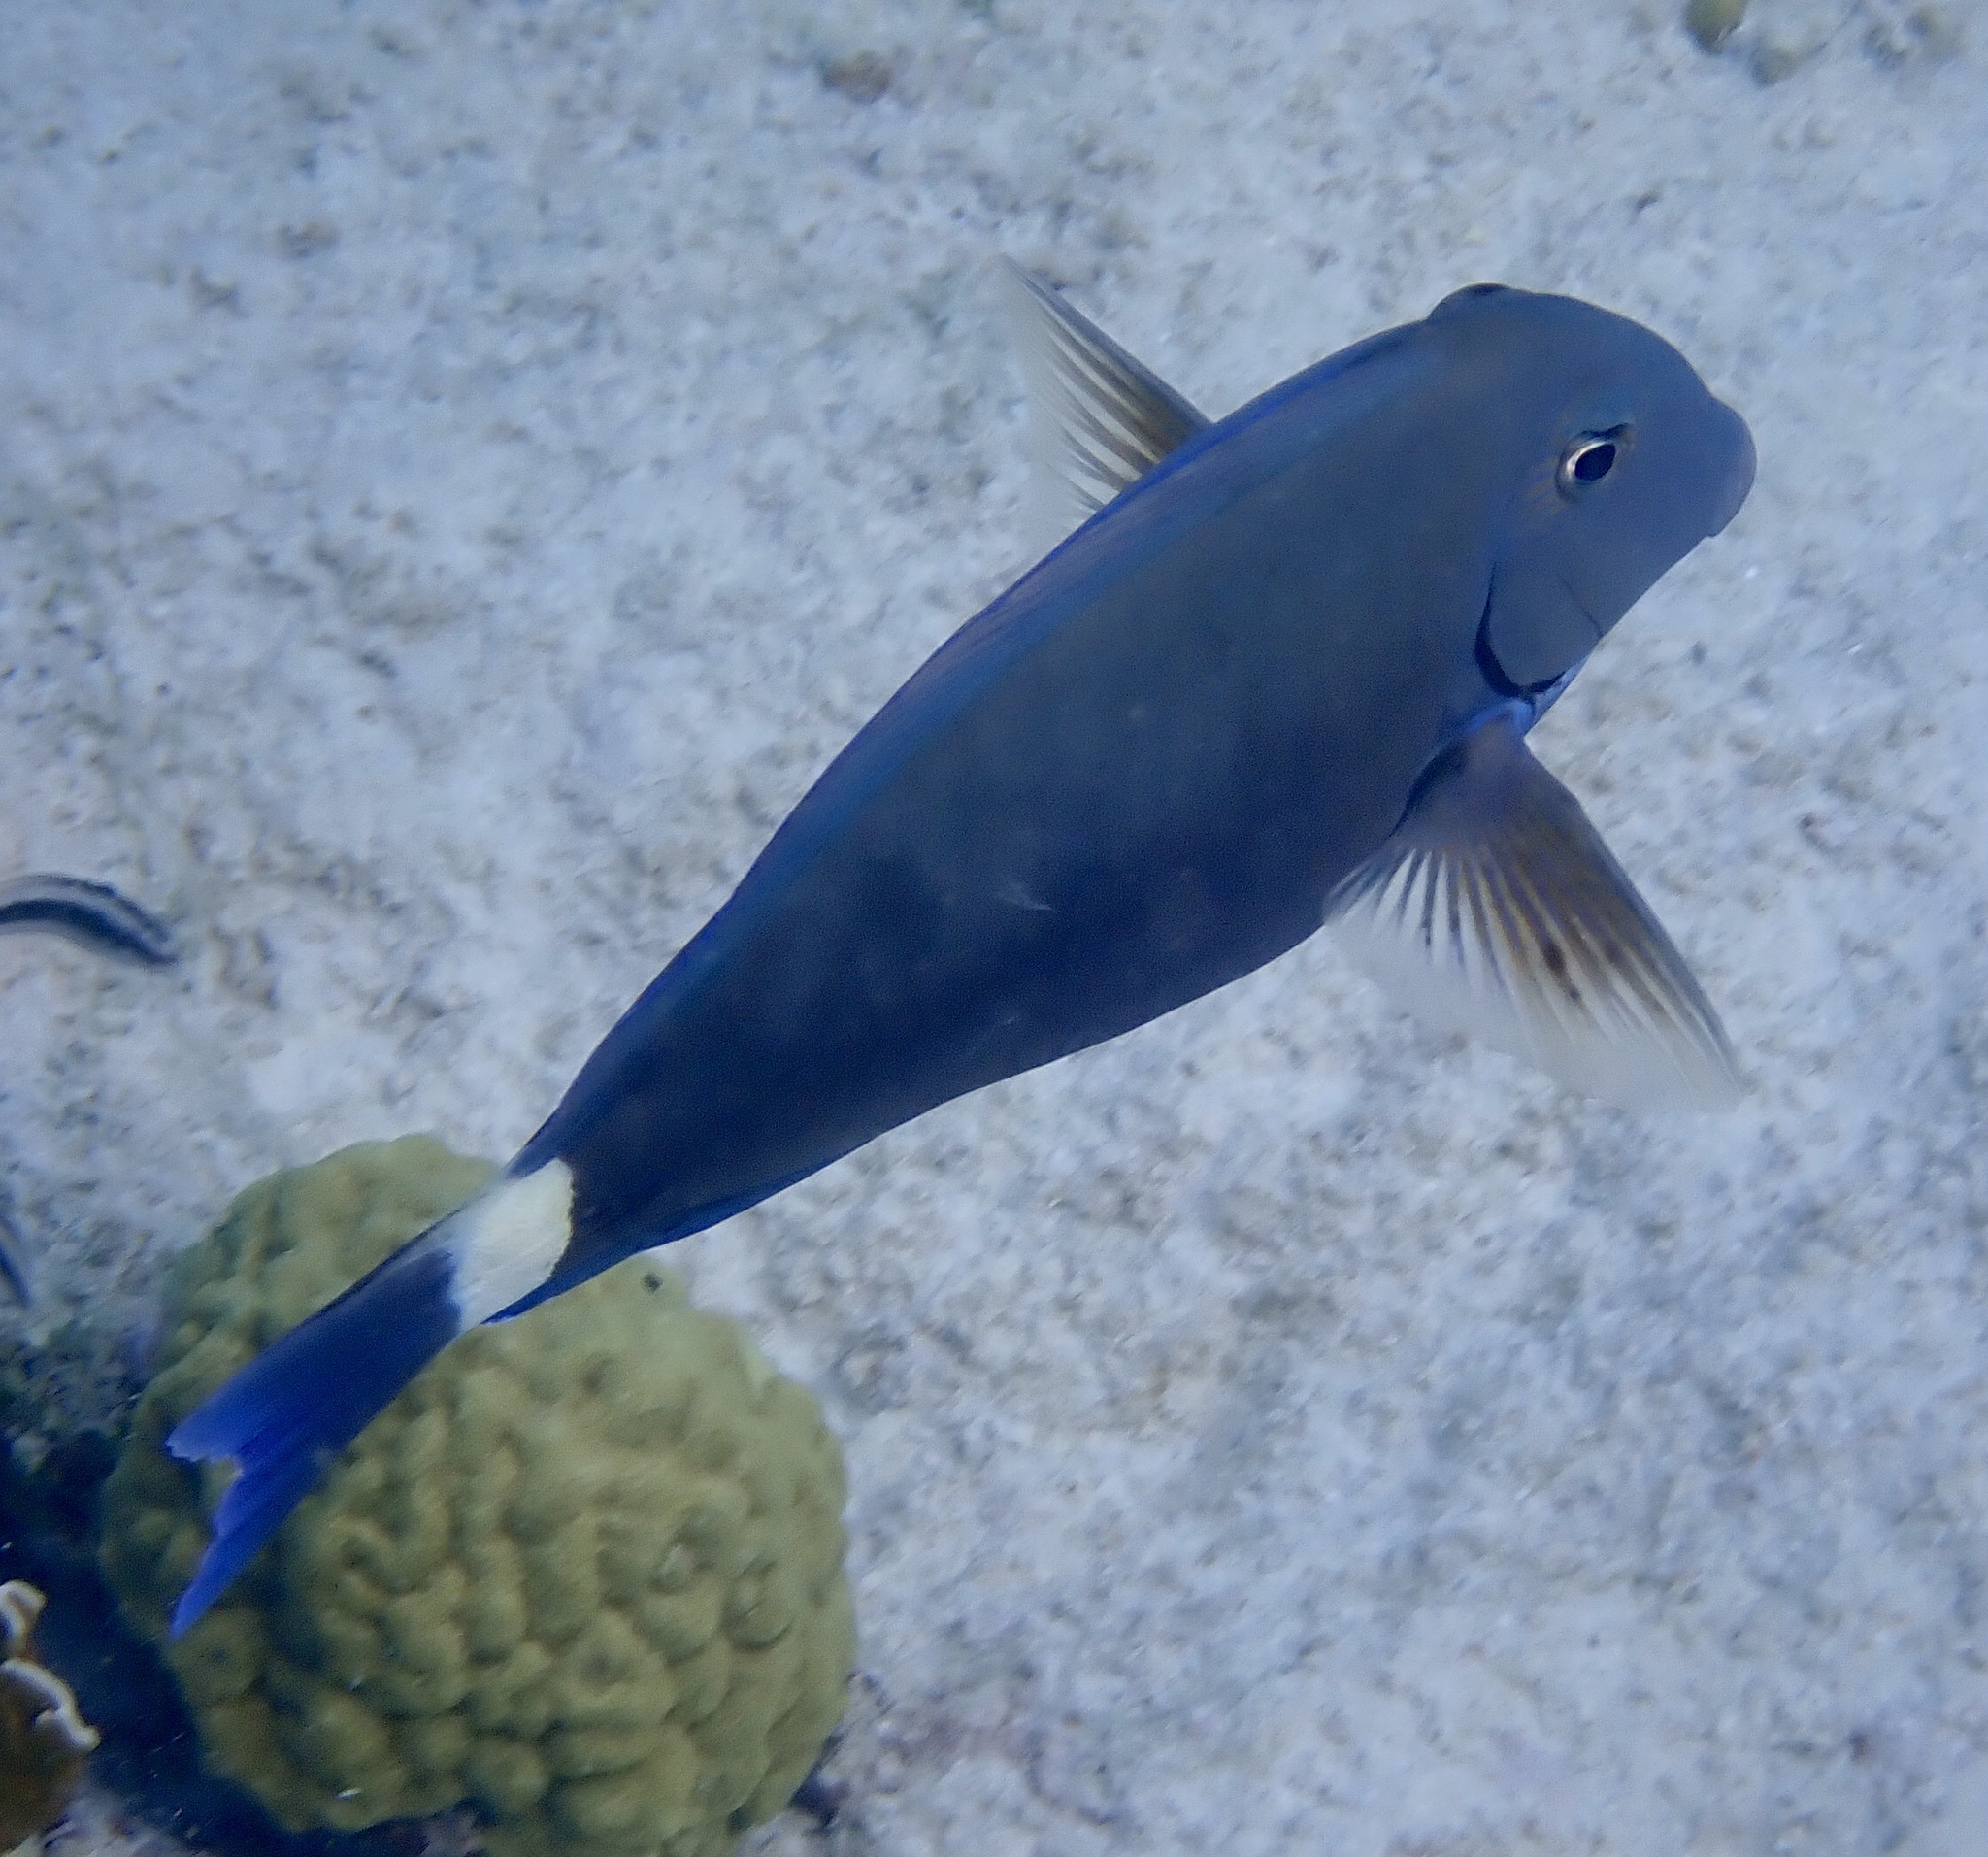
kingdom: Animalia
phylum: Chordata
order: Perciformes
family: Acanthuridae
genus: Acanthurus
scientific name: Acanthurus bahianus
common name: Ocean surgeon
